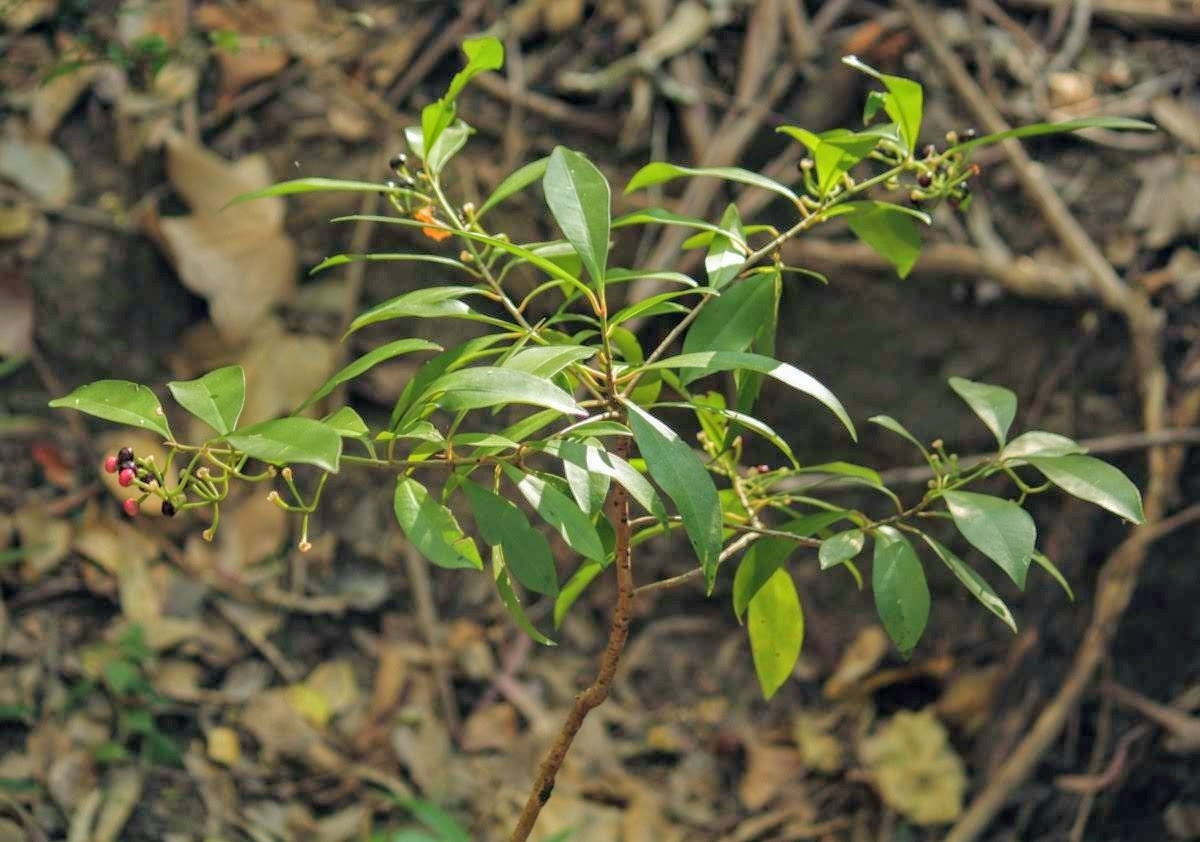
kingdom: Plantae
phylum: Tracheophyta
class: Magnoliopsida
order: Ericales
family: Primulaceae
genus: Ardisia
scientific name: Ardisia elliptica
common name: Shoebutton
